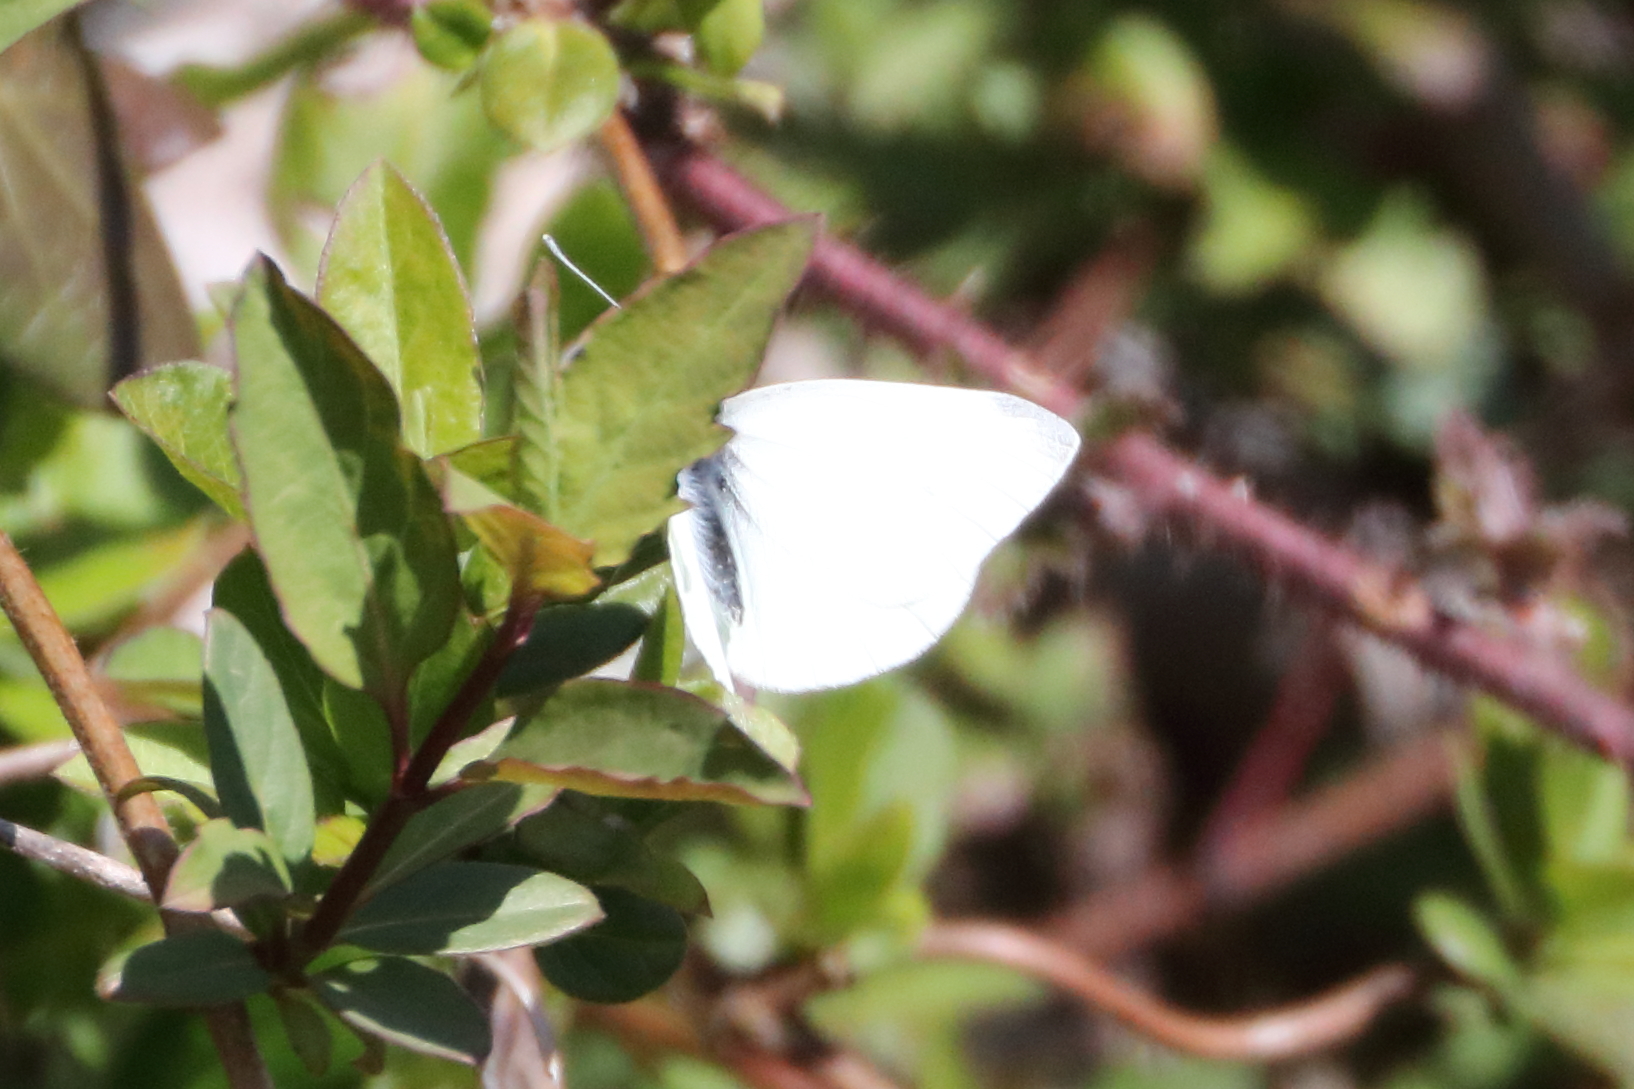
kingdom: Animalia
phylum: Arthropoda
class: Insecta
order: Lepidoptera
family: Pieridae
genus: Pieris
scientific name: Pieris rapae
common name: Small white
